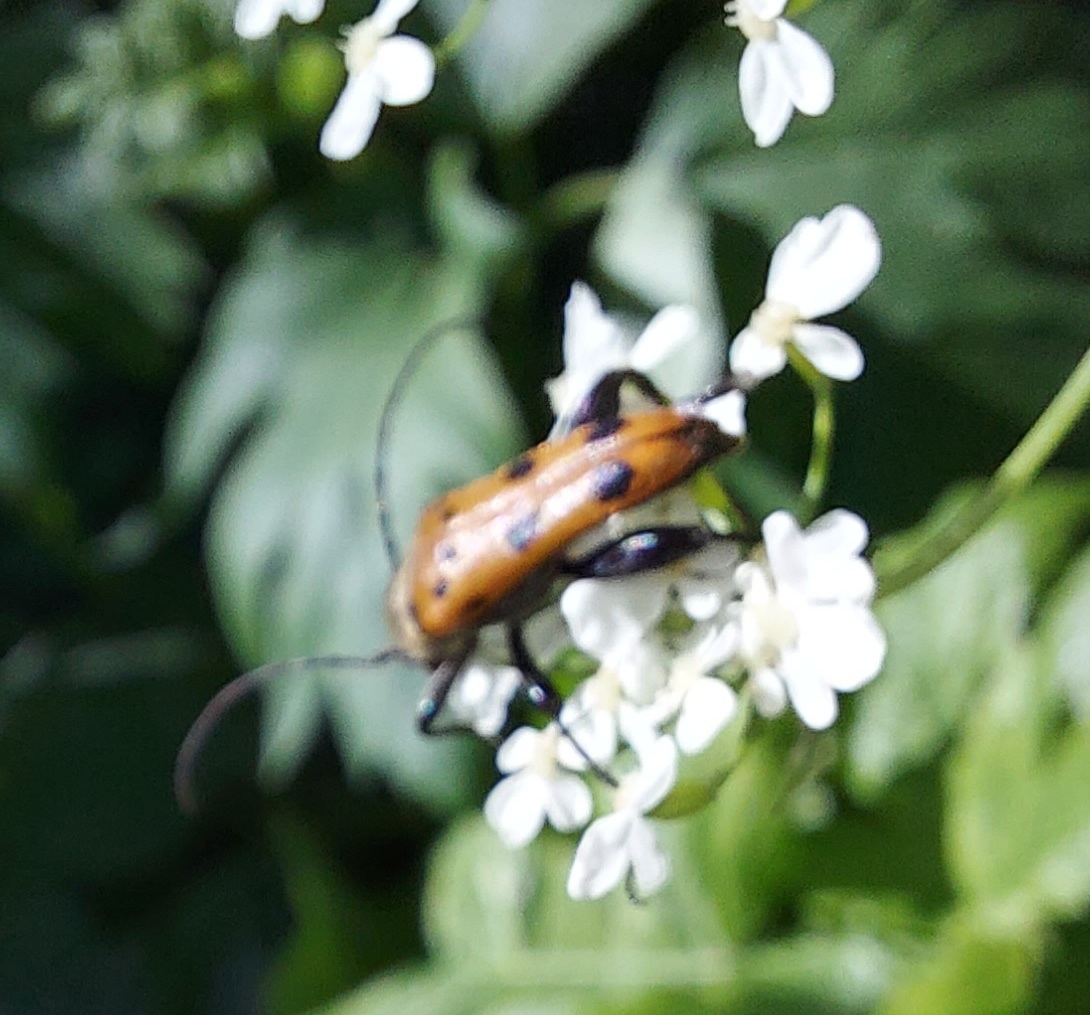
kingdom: Animalia
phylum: Arthropoda
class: Insecta
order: Coleoptera
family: Cerambycidae
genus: Oedecnema
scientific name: Oedecnema gebleri
